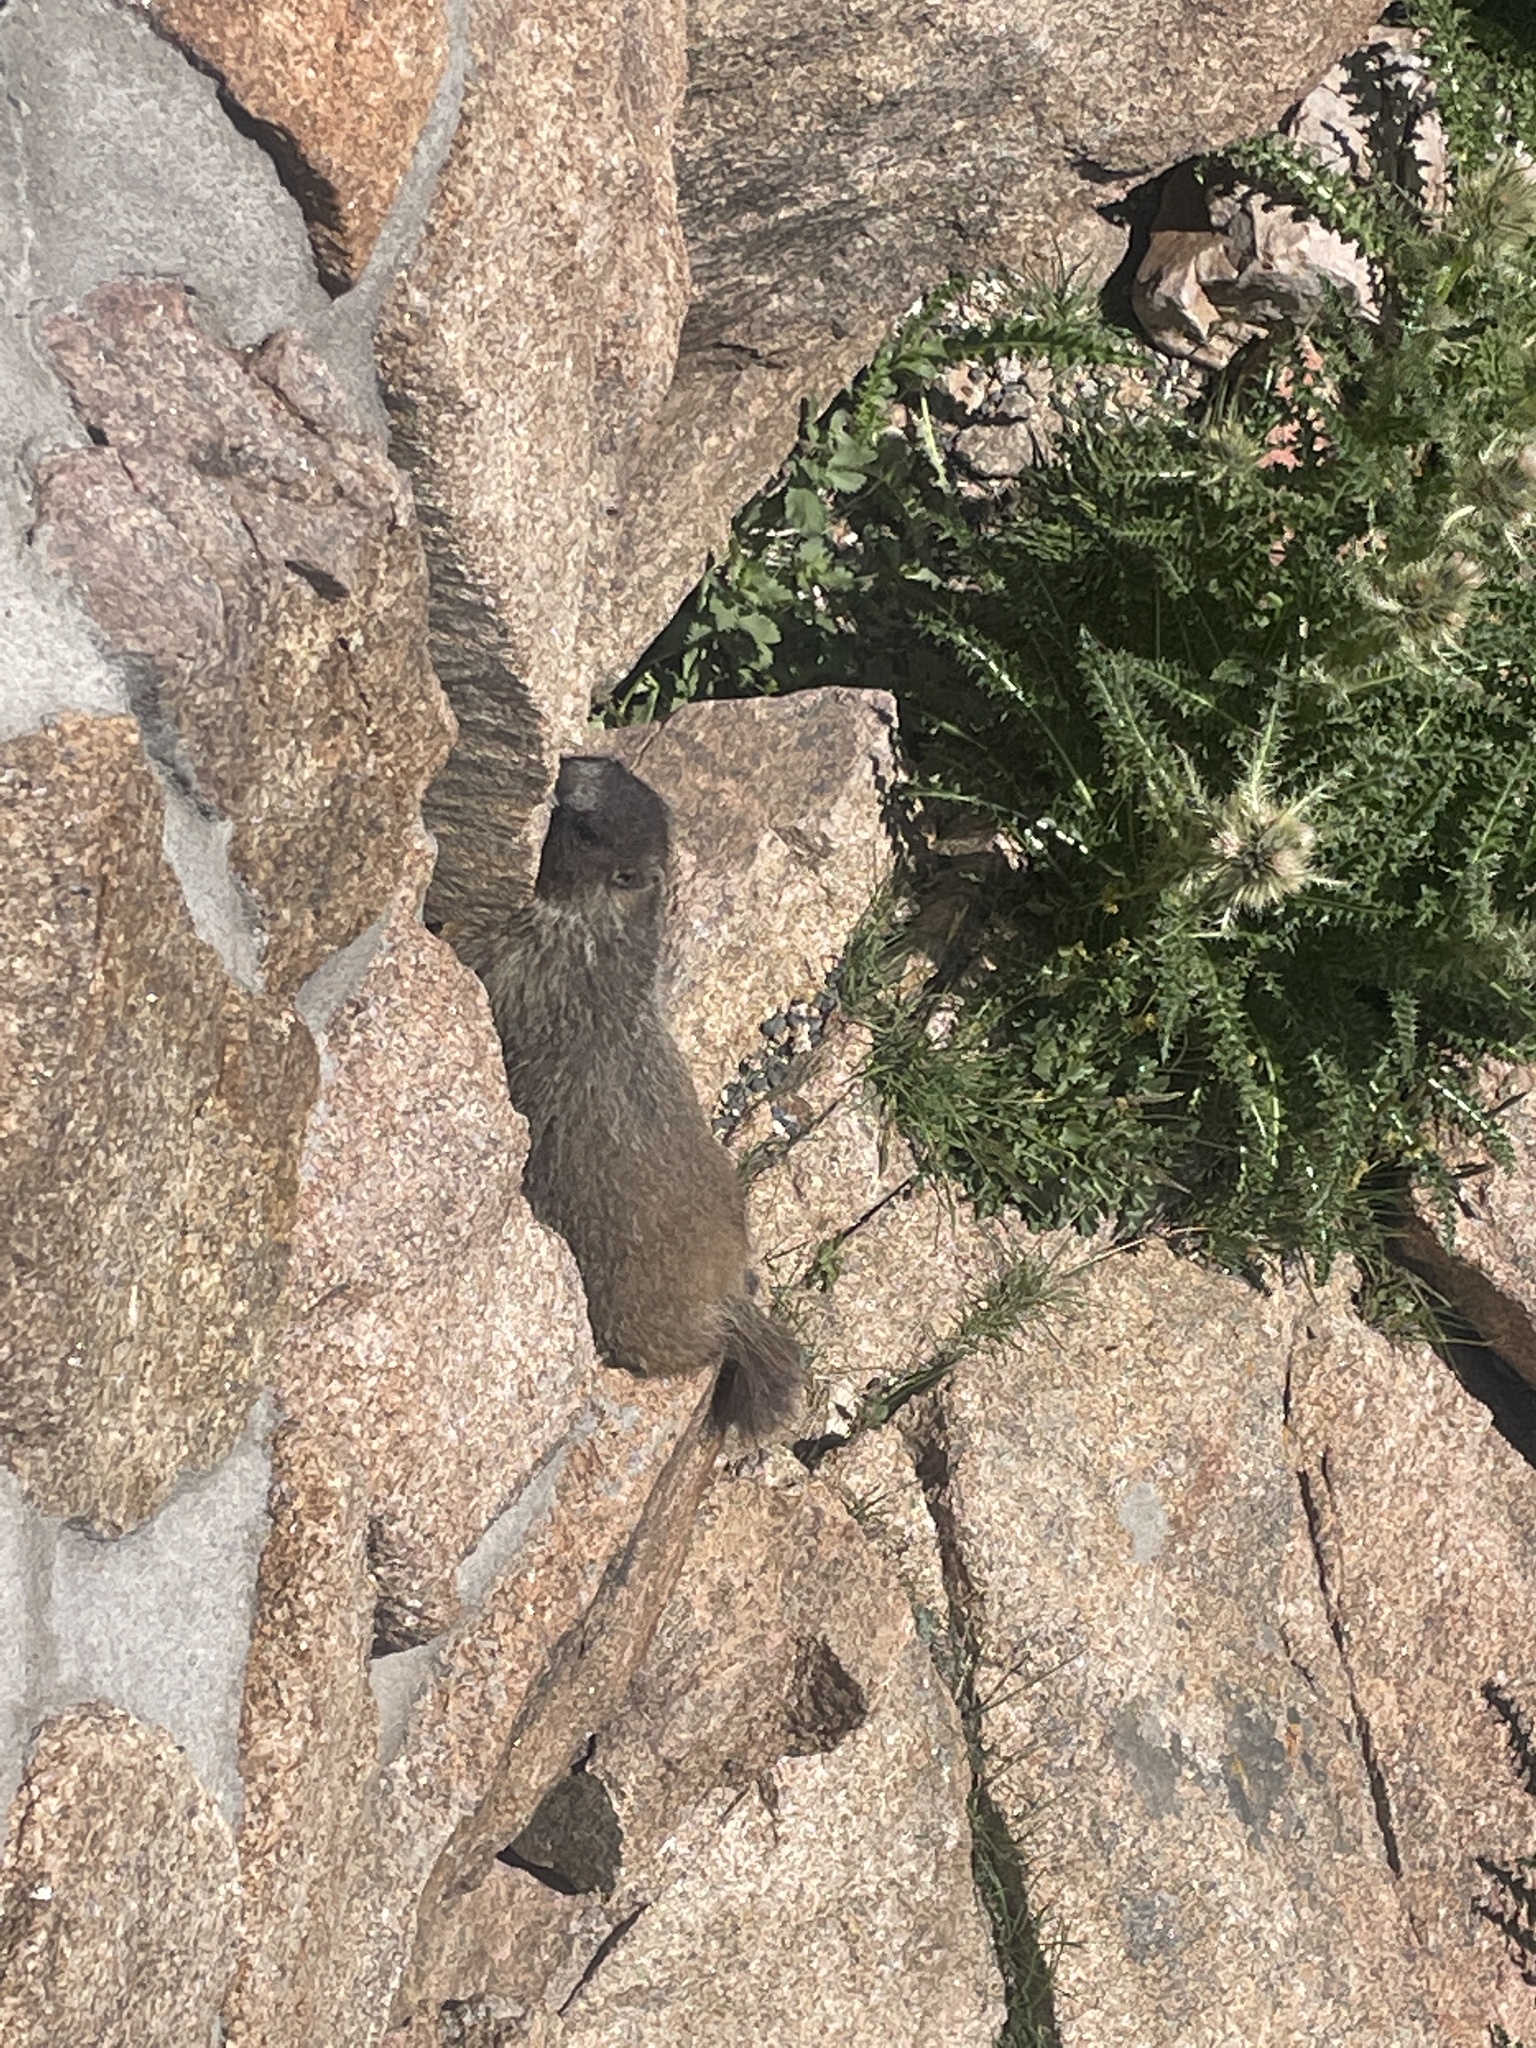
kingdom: Animalia
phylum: Chordata
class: Mammalia
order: Rodentia
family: Sciuridae
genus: Marmota
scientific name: Marmota flaviventris
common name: Yellow-bellied marmot
